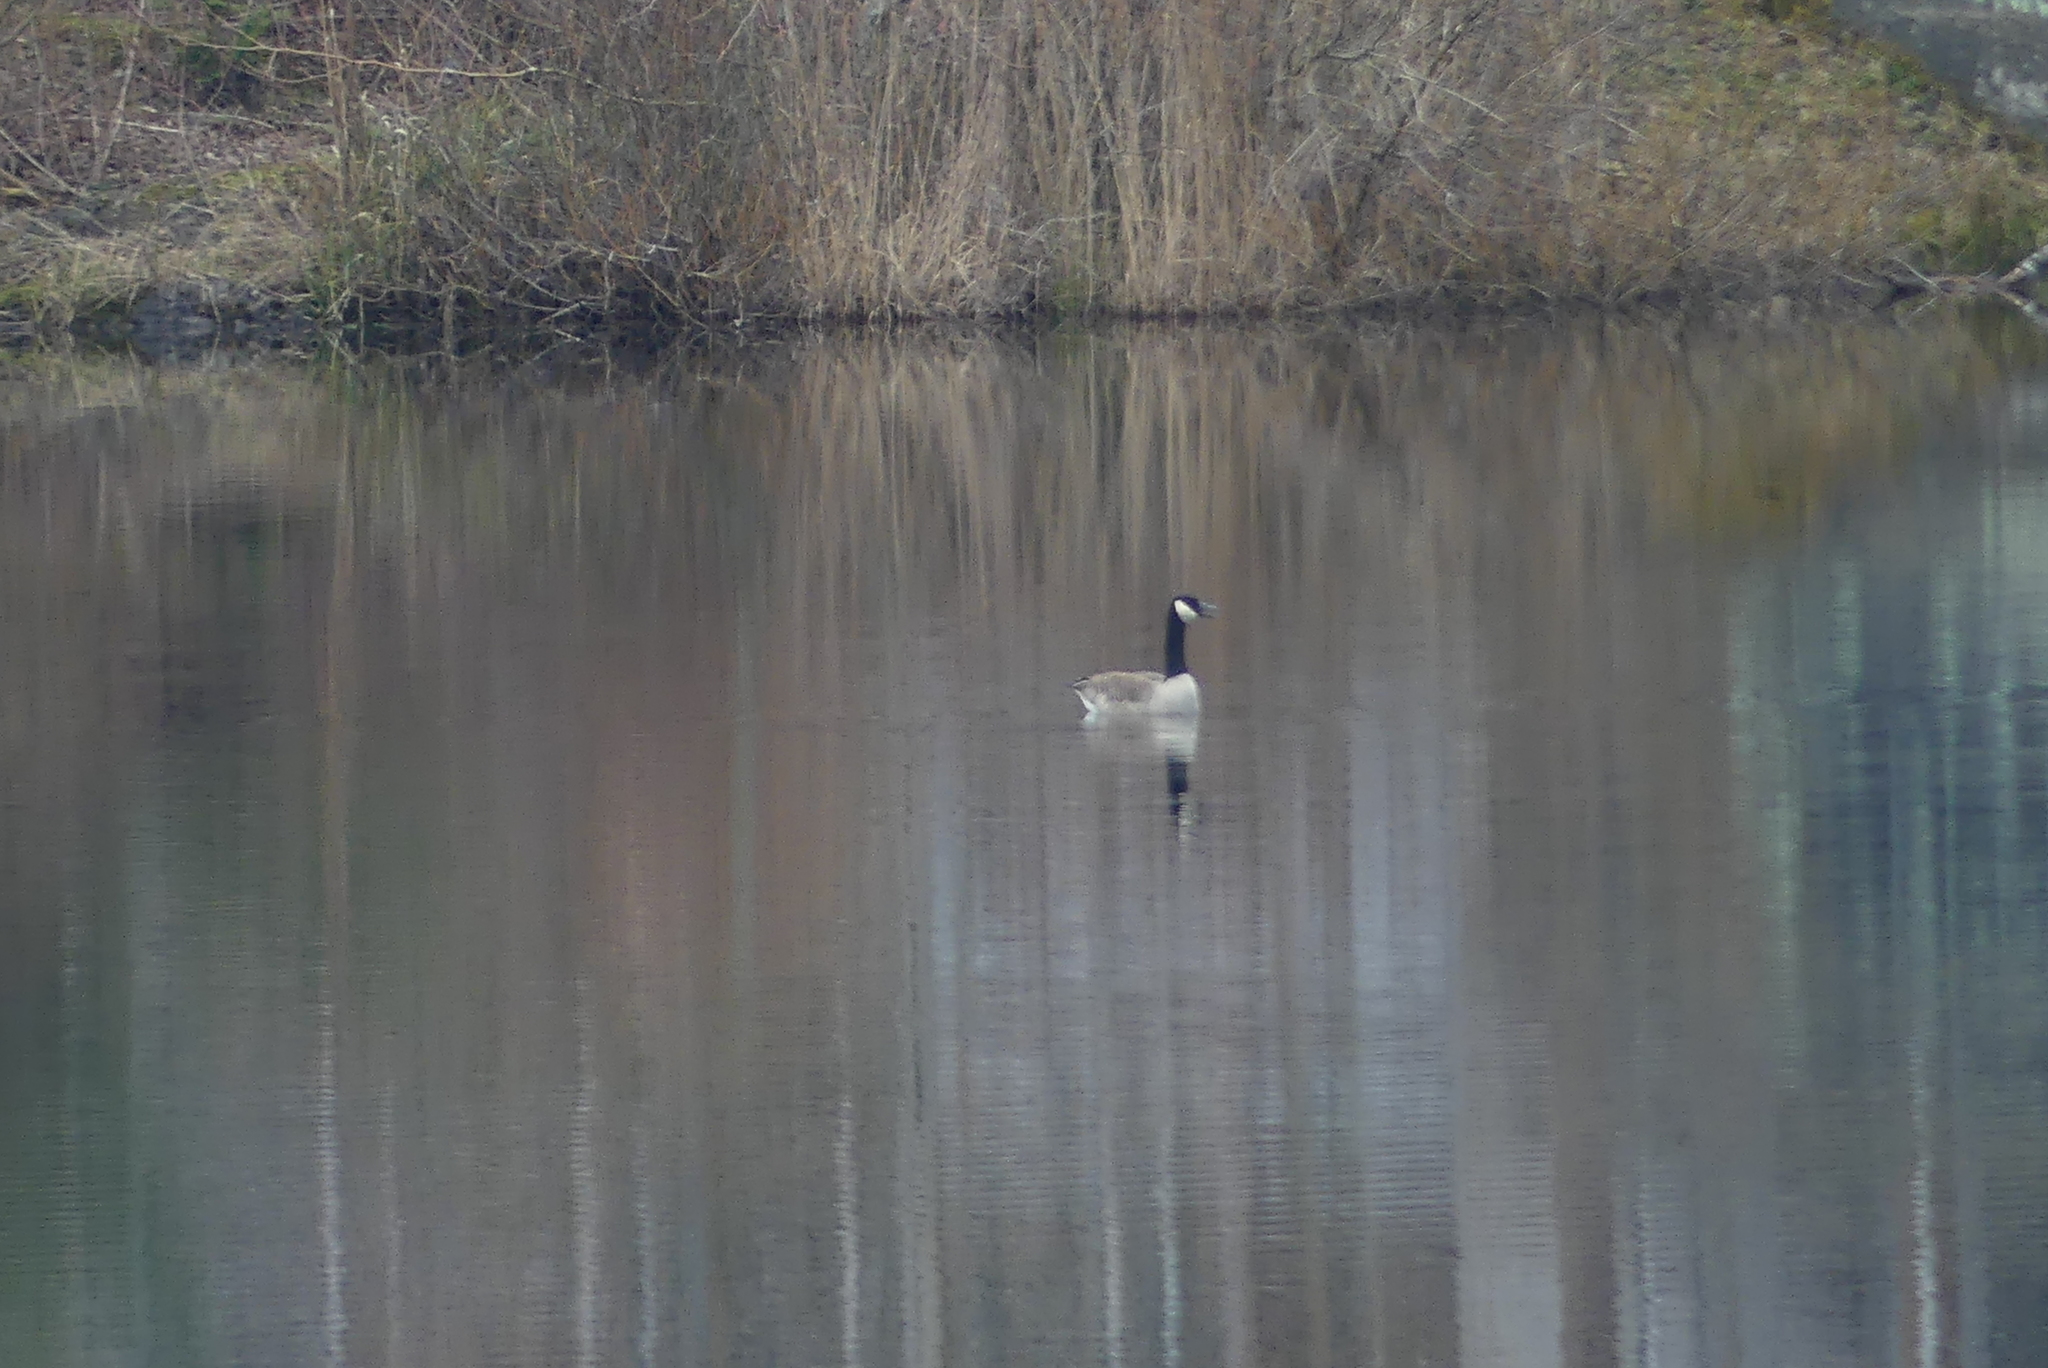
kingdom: Animalia
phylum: Chordata
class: Aves
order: Anseriformes
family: Anatidae
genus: Branta
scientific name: Branta canadensis
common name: Canada goose
